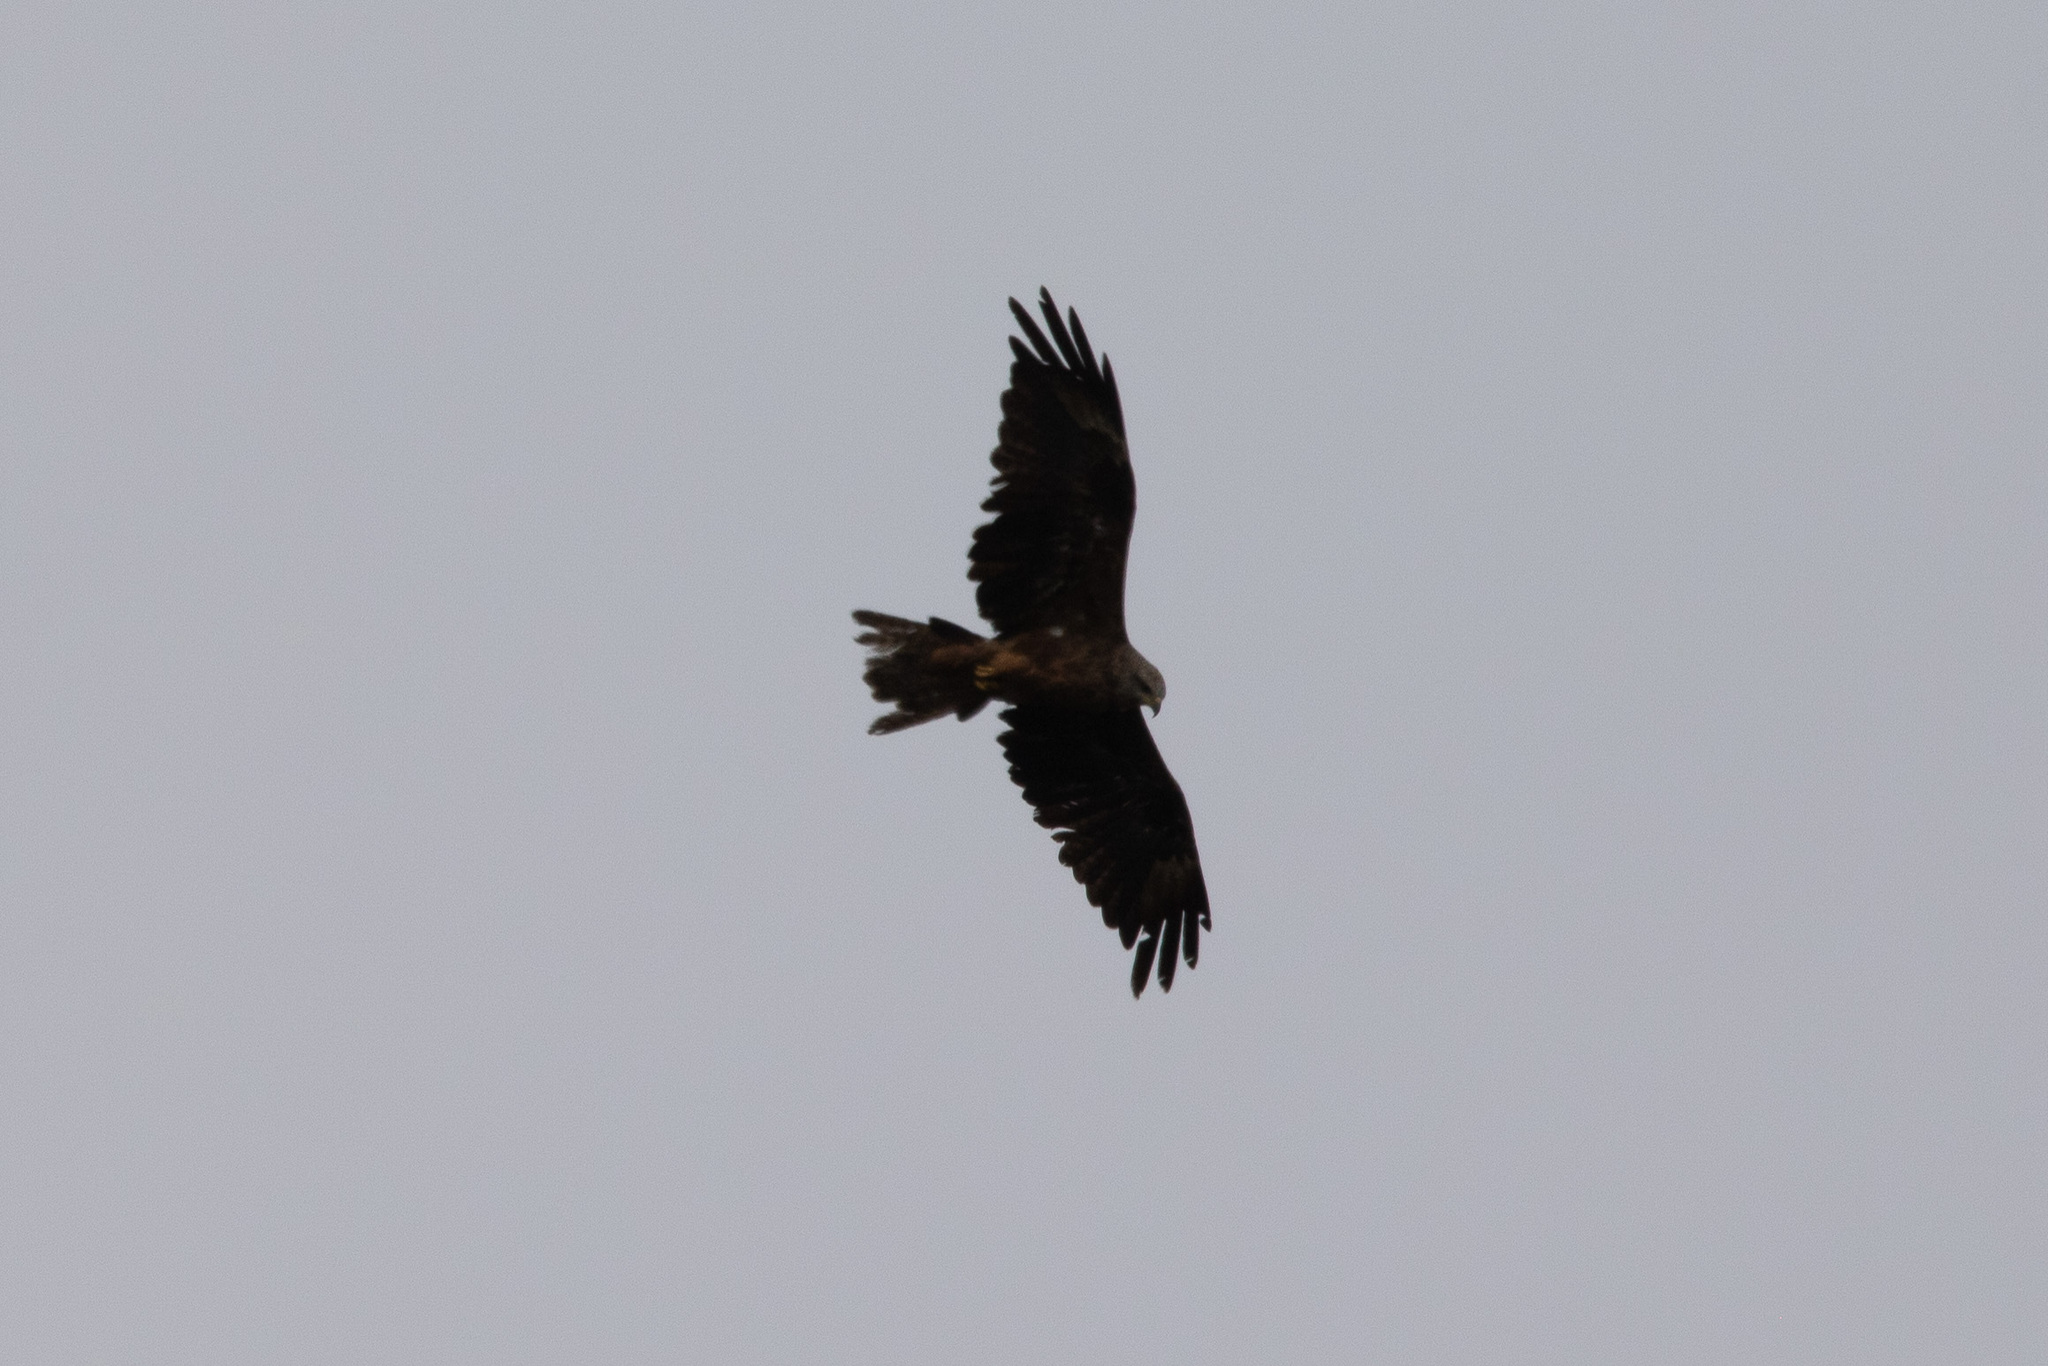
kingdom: Animalia
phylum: Chordata
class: Aves
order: Accipitriformes
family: Accipitridae
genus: Milvus
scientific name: Milvus migrans
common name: Black kite
